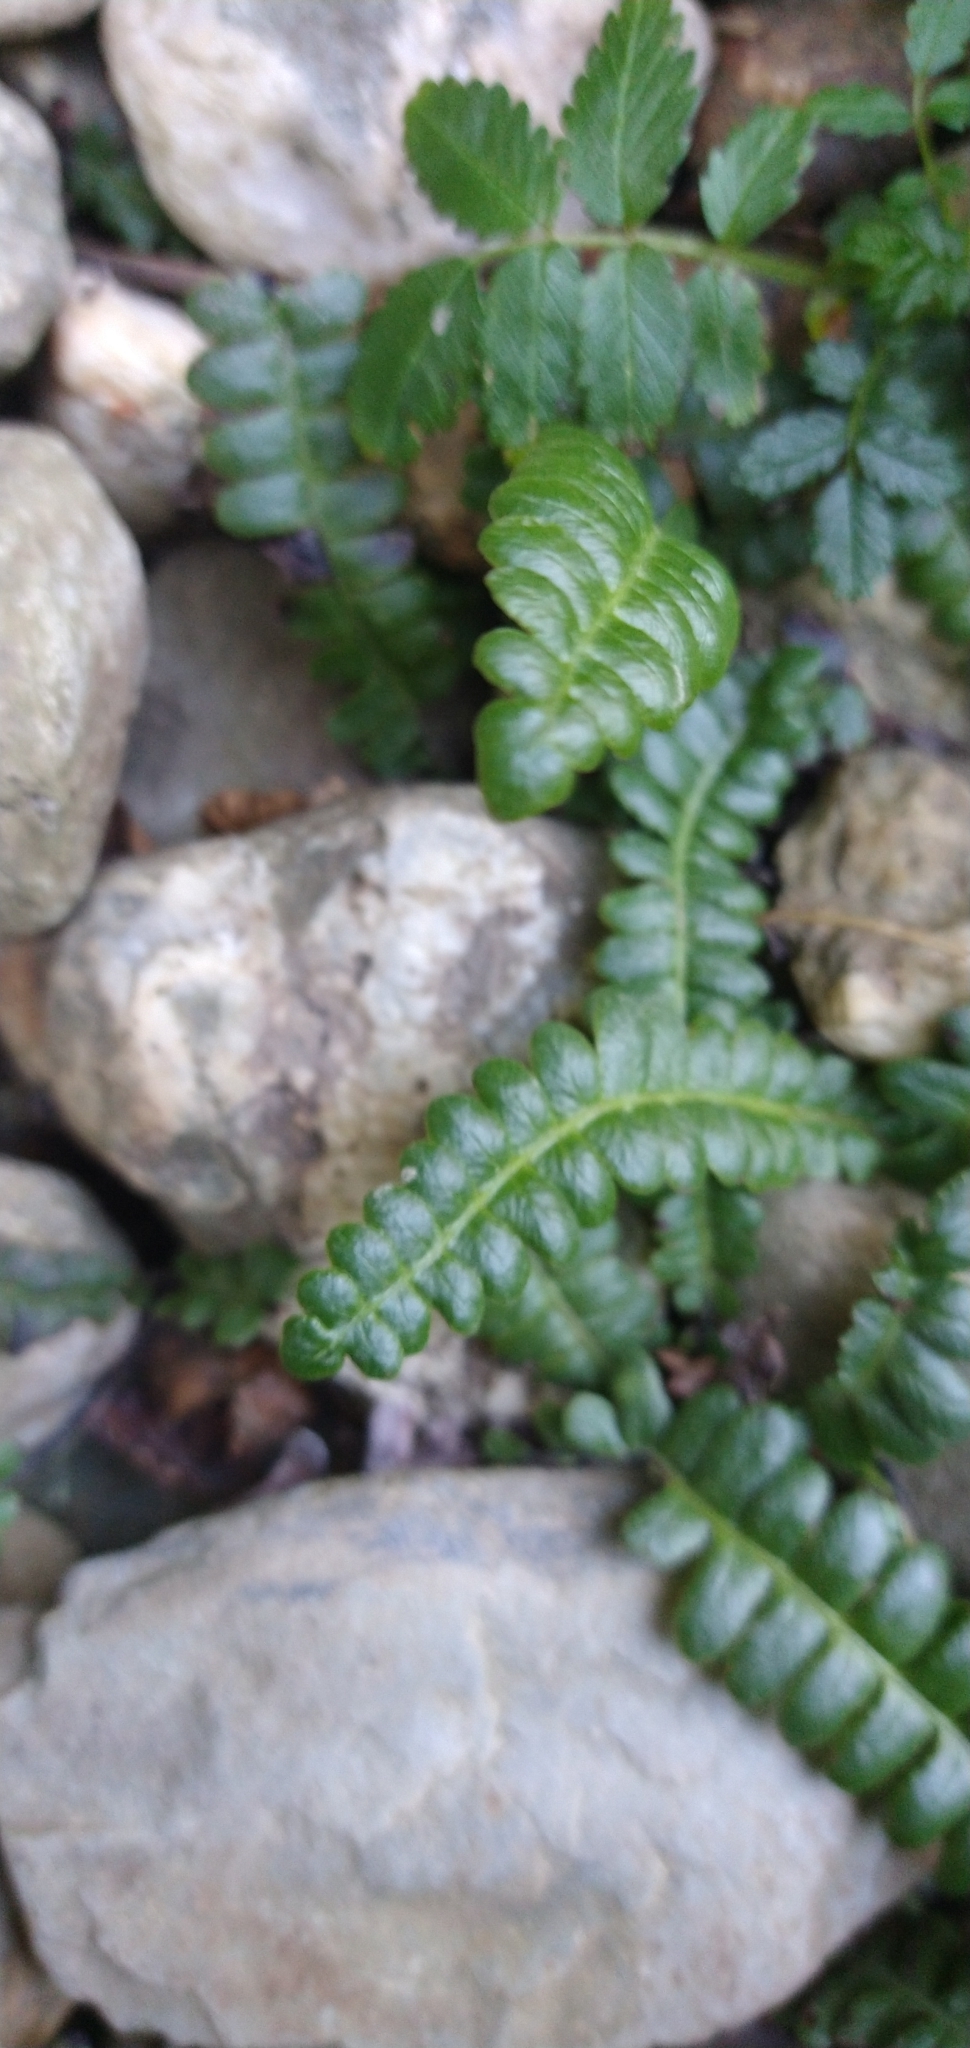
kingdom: Plantae
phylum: Tracheophyta
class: Polypodiopsida
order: Polypodiales
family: Blechnaceae
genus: Austroblechnum
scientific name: Austroblechnum penna-marina
